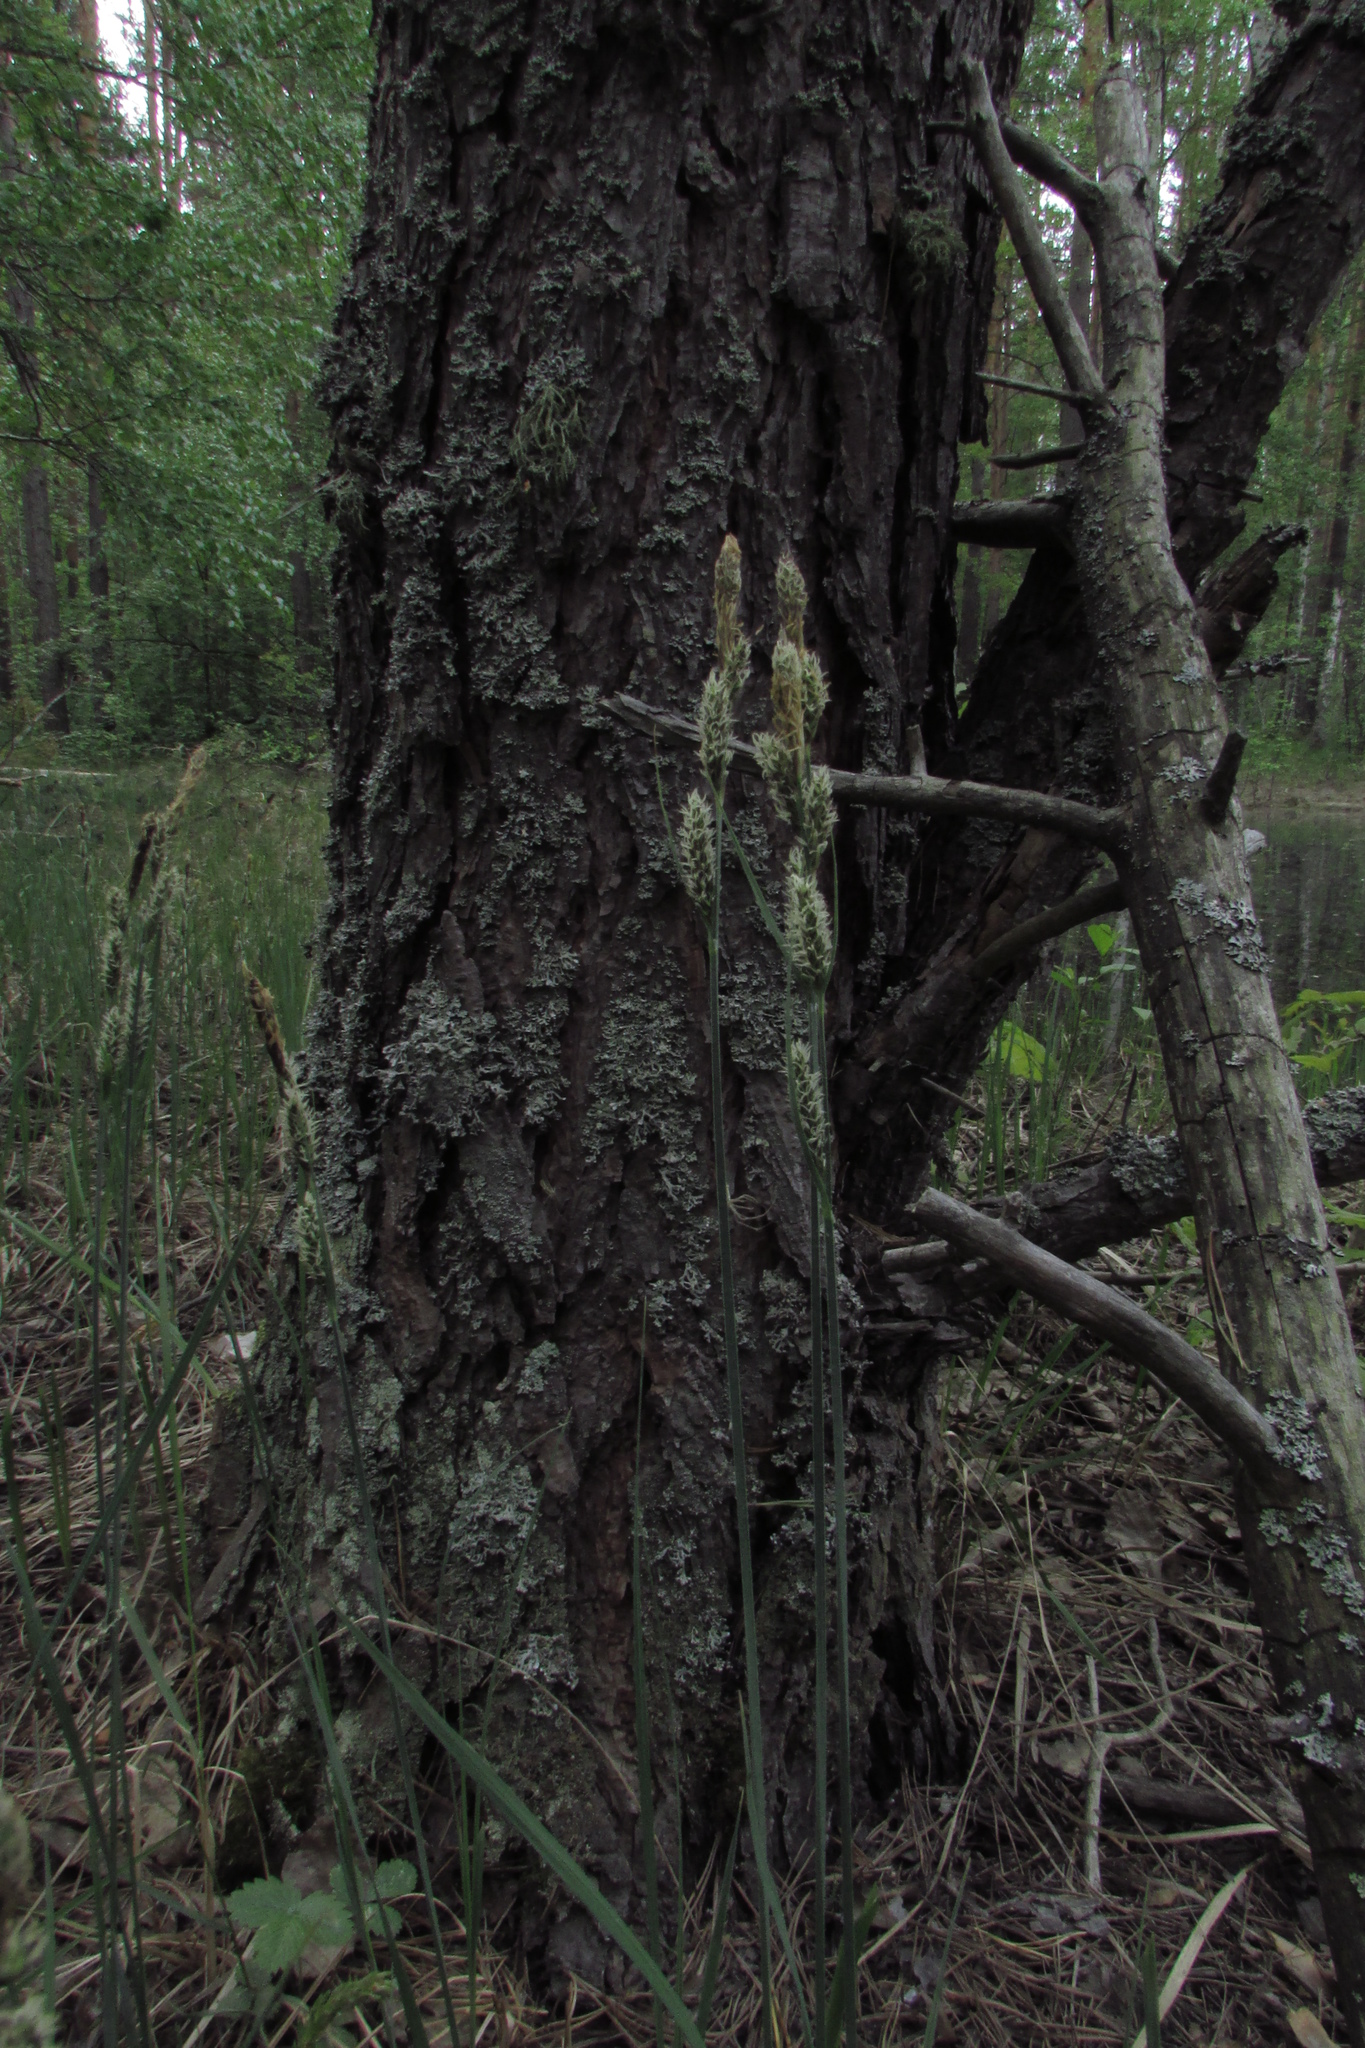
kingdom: Plantae
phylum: Tracheophyta
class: Liliopsida
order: Poales
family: Cyperaceae
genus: Carex
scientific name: Carex hartmaniorum
